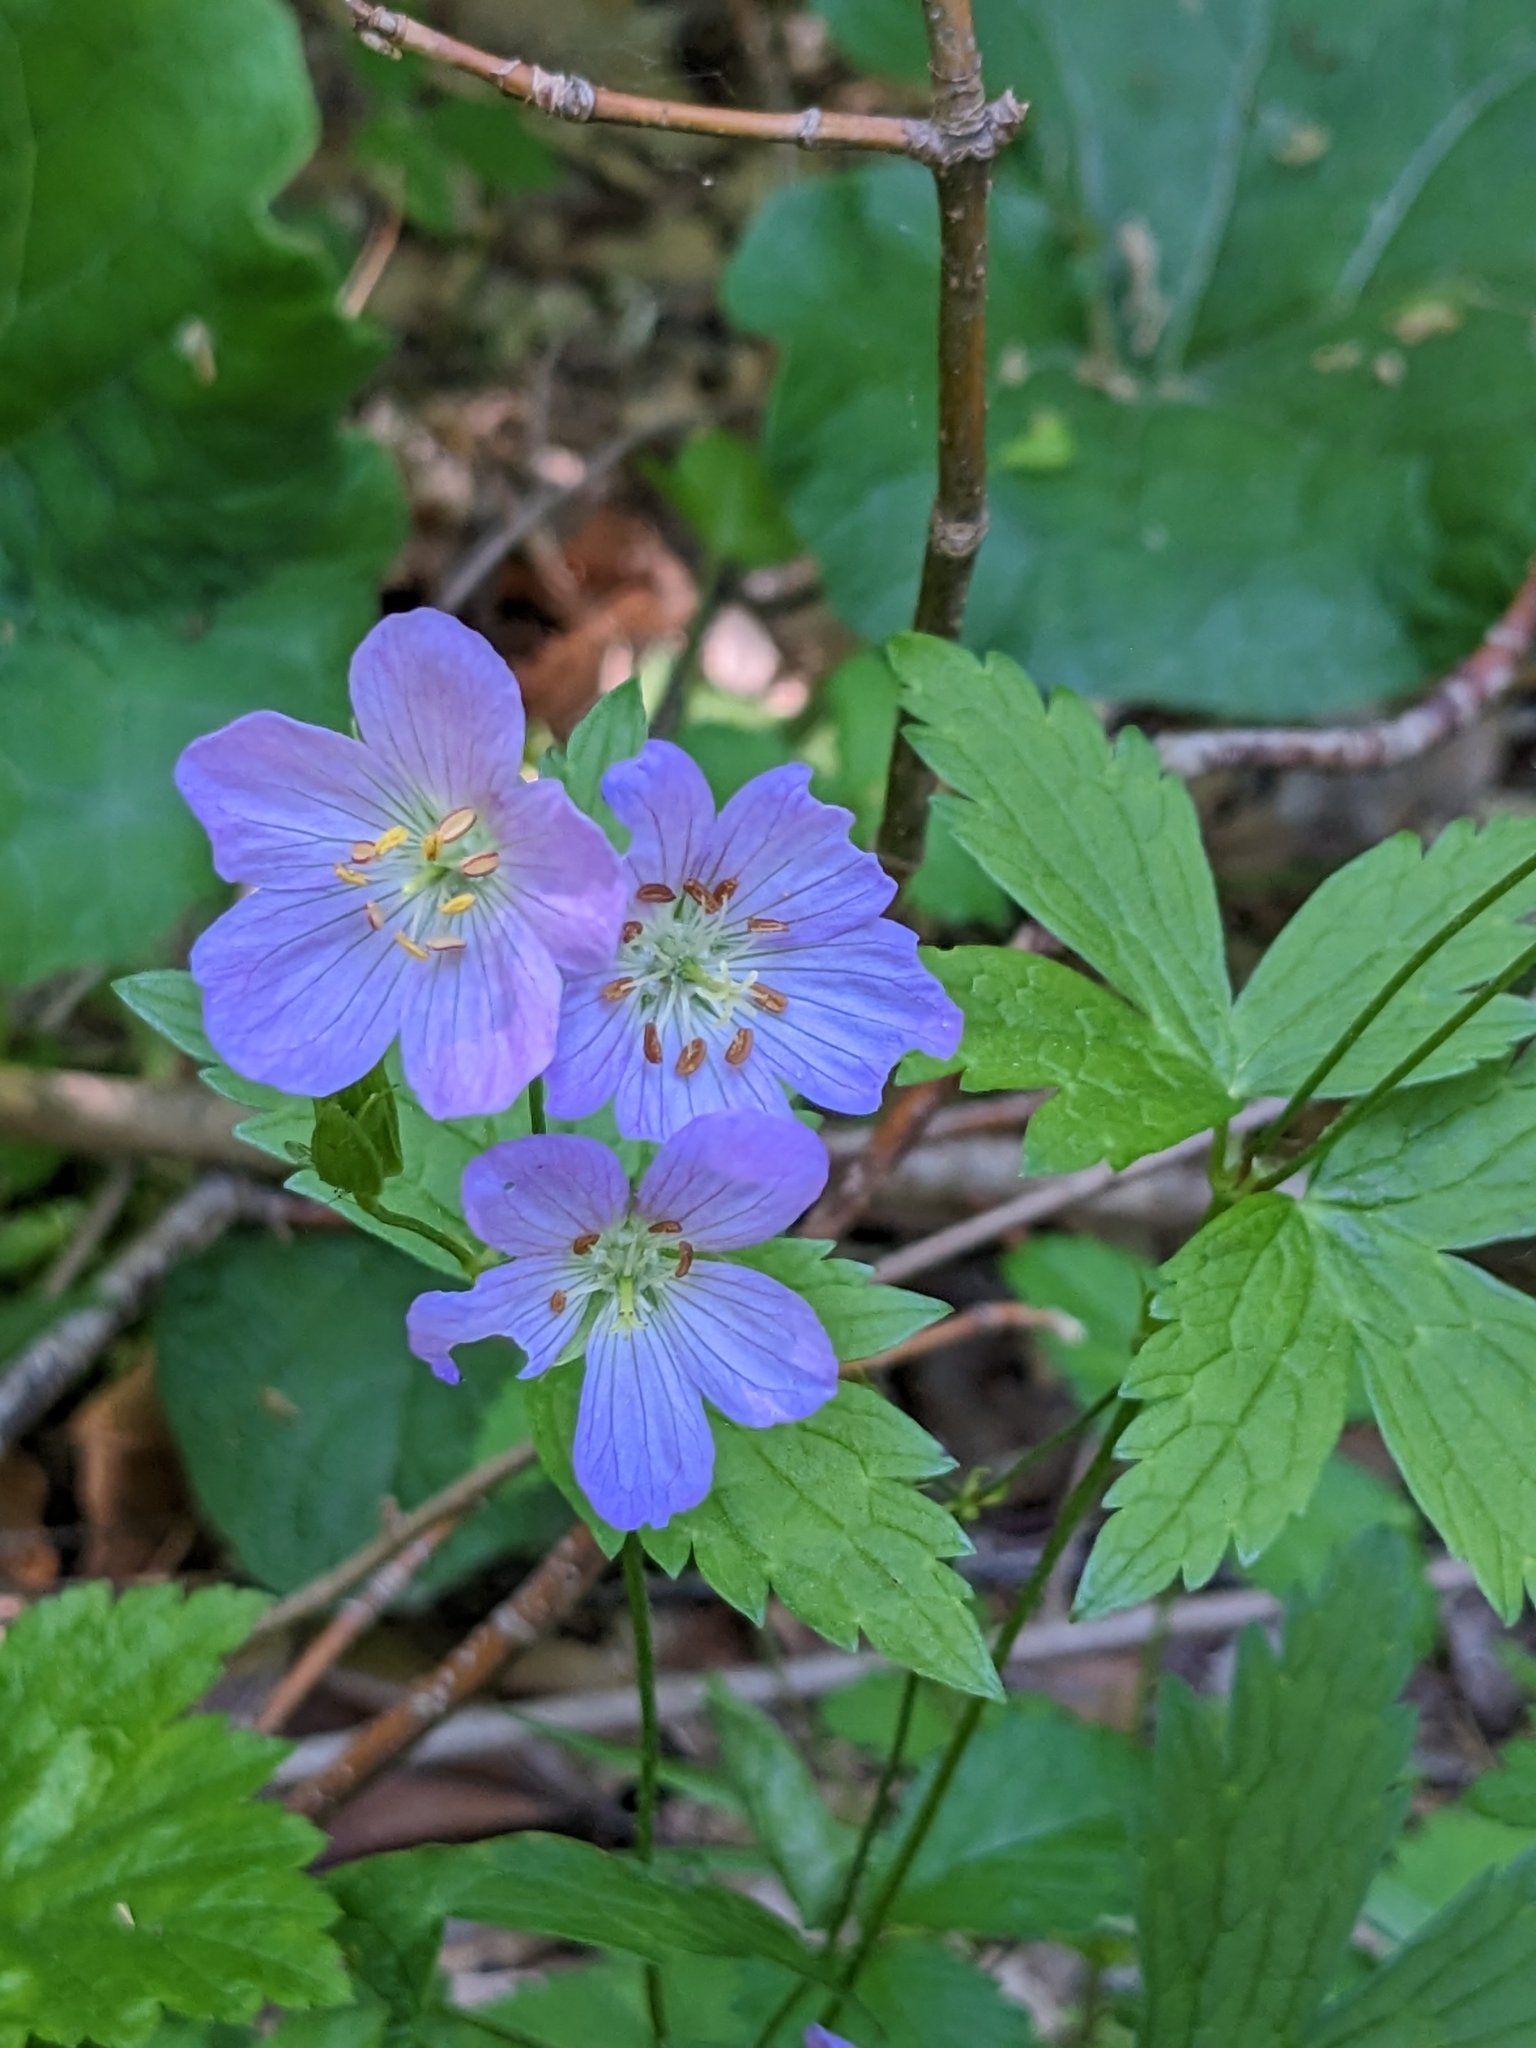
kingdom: Plantae
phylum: Tracheophyta
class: Magnoliopsida
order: Geraniales
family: Geraniaceae
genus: Geranium
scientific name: Geranium maculatum
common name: Spotted geranium
